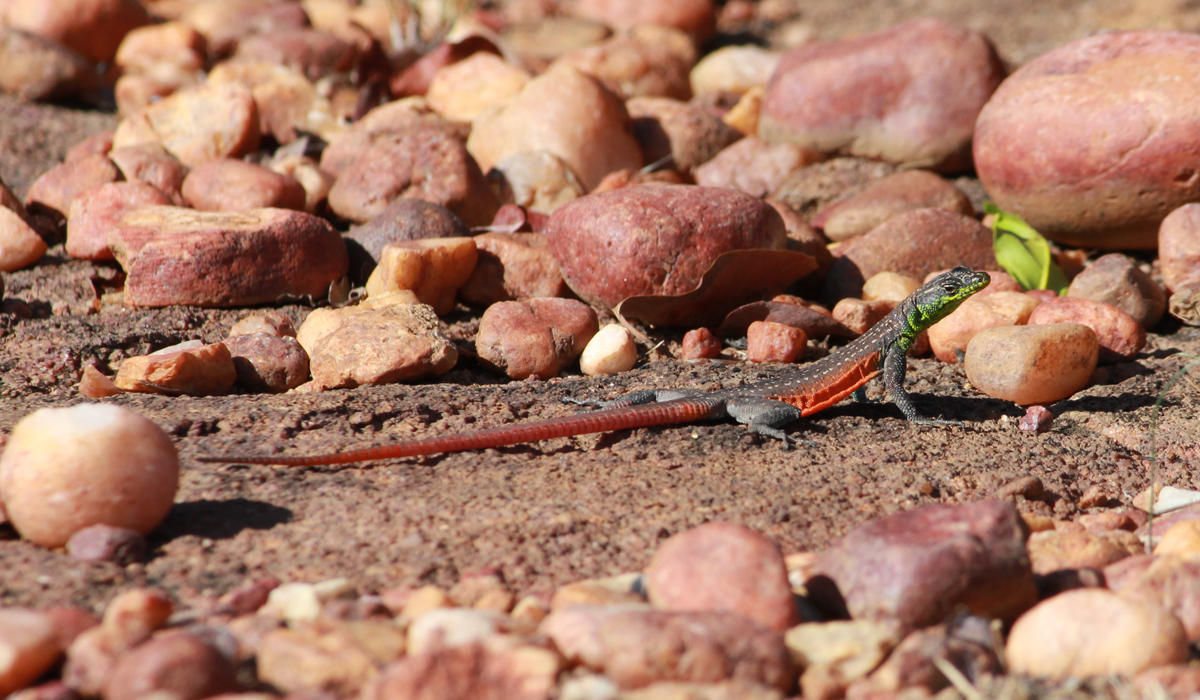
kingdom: Animalia
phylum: Chordata
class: Squamata
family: Cordylidae
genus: Platysaurus
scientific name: Platysaurus minor
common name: Waterberg flat lizard
